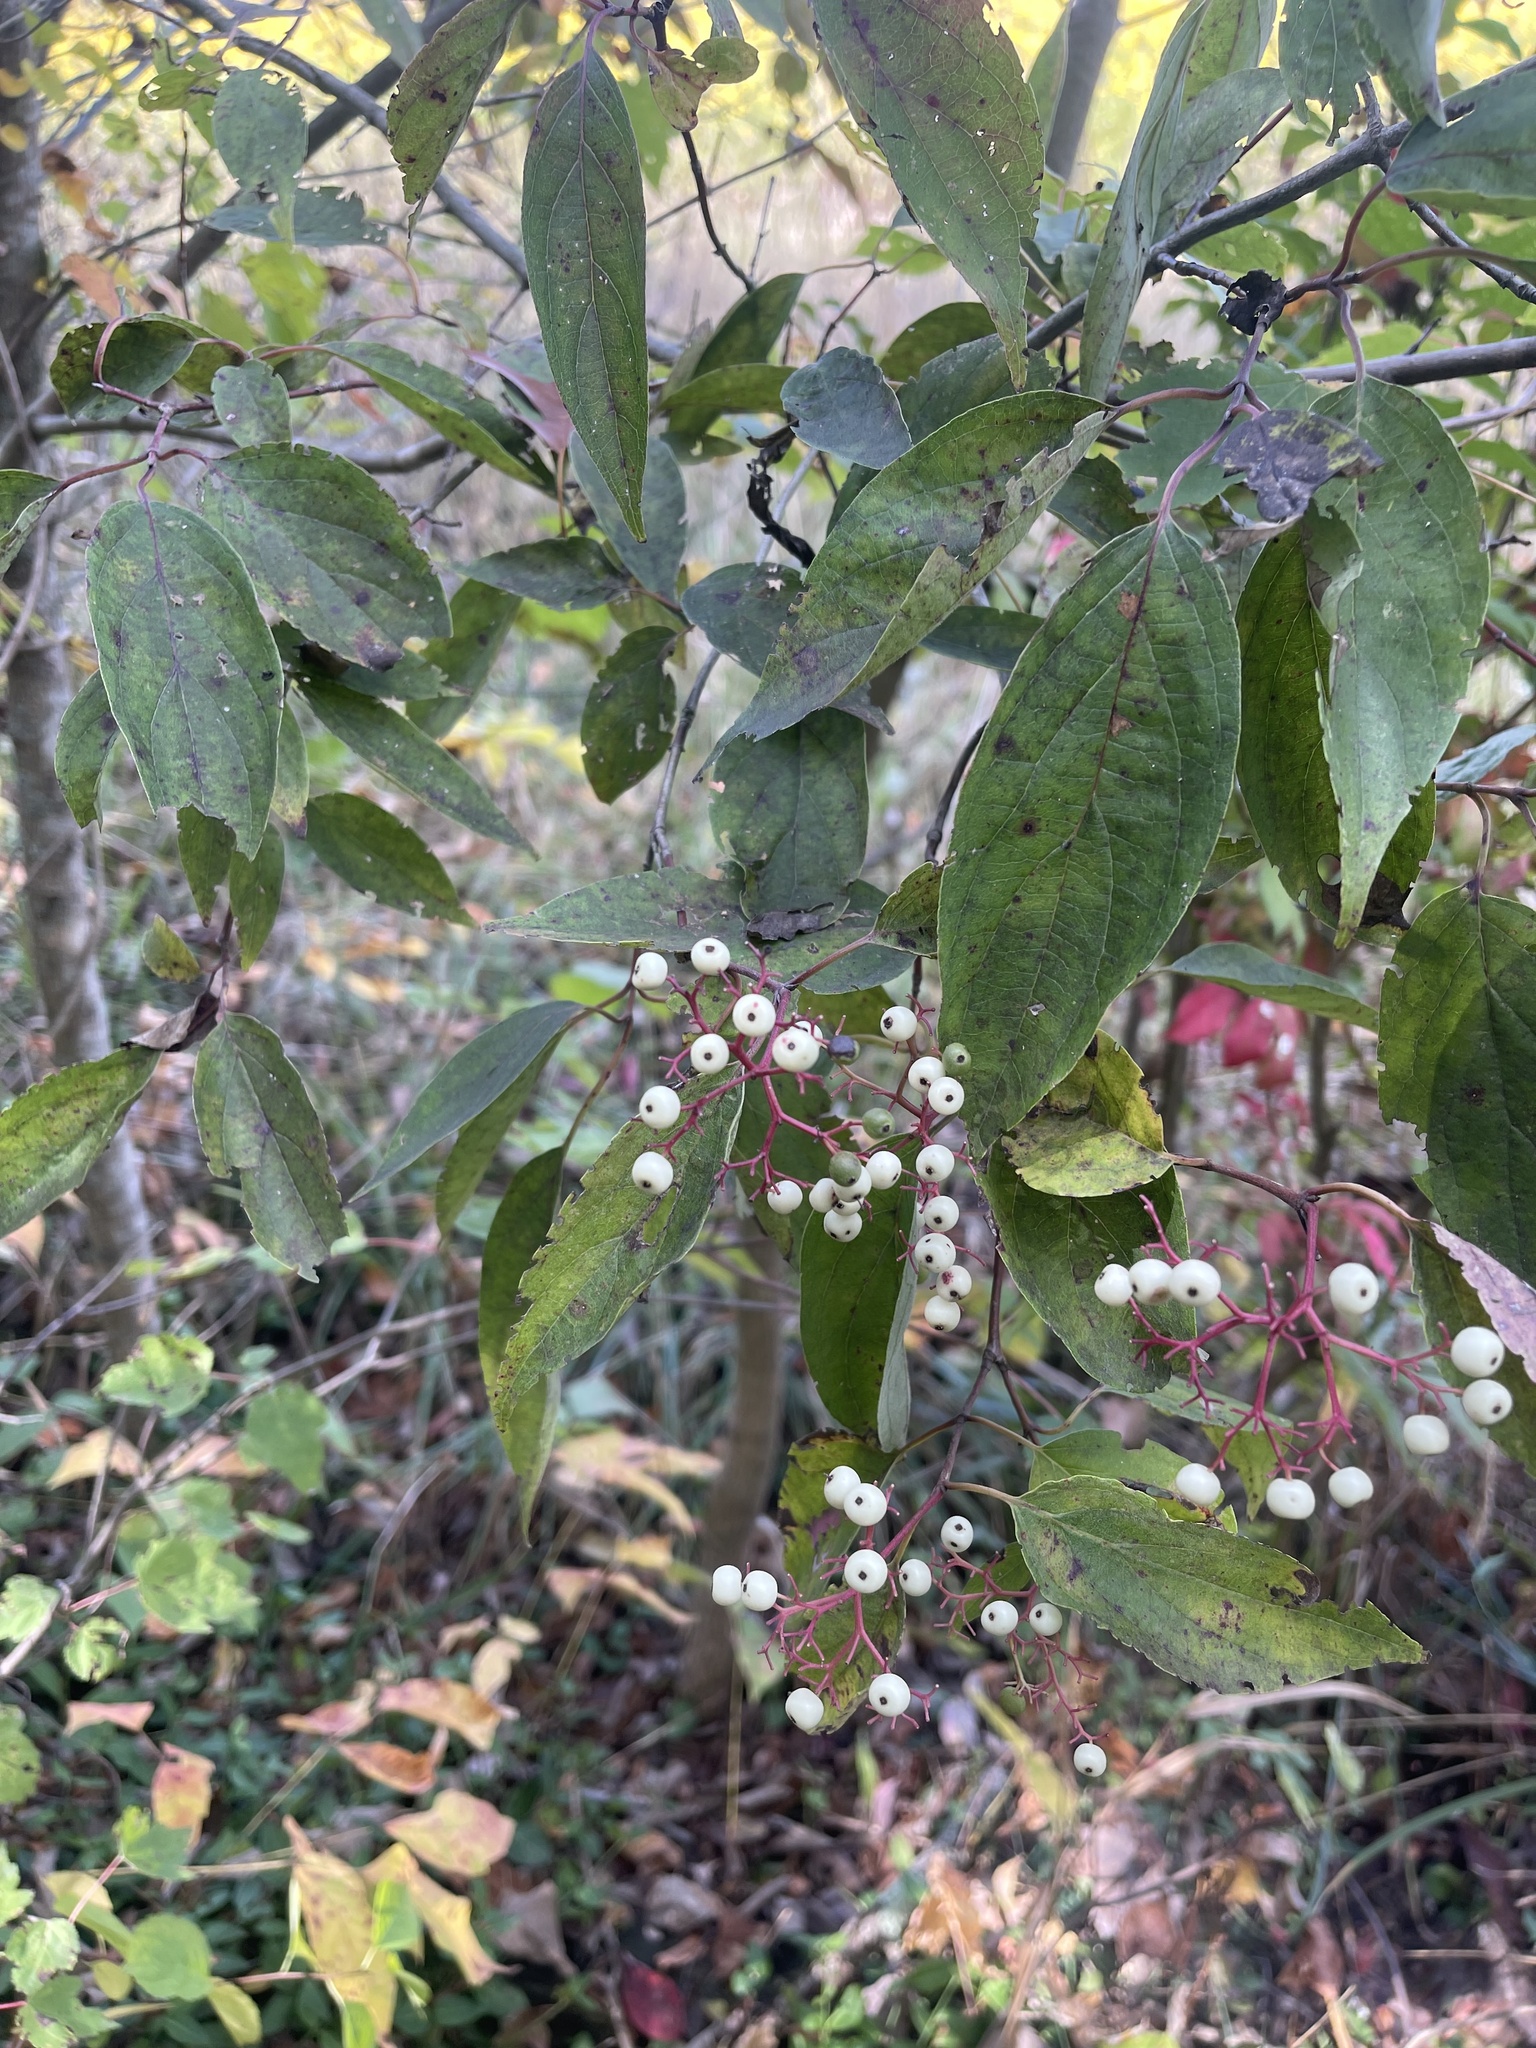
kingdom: Plantae
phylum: Tracheophyta
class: Magnoliopsida
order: Cornales
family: Cornaceae
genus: Cornus
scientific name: Cornus drummondii
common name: Rough-leaf dogwood
